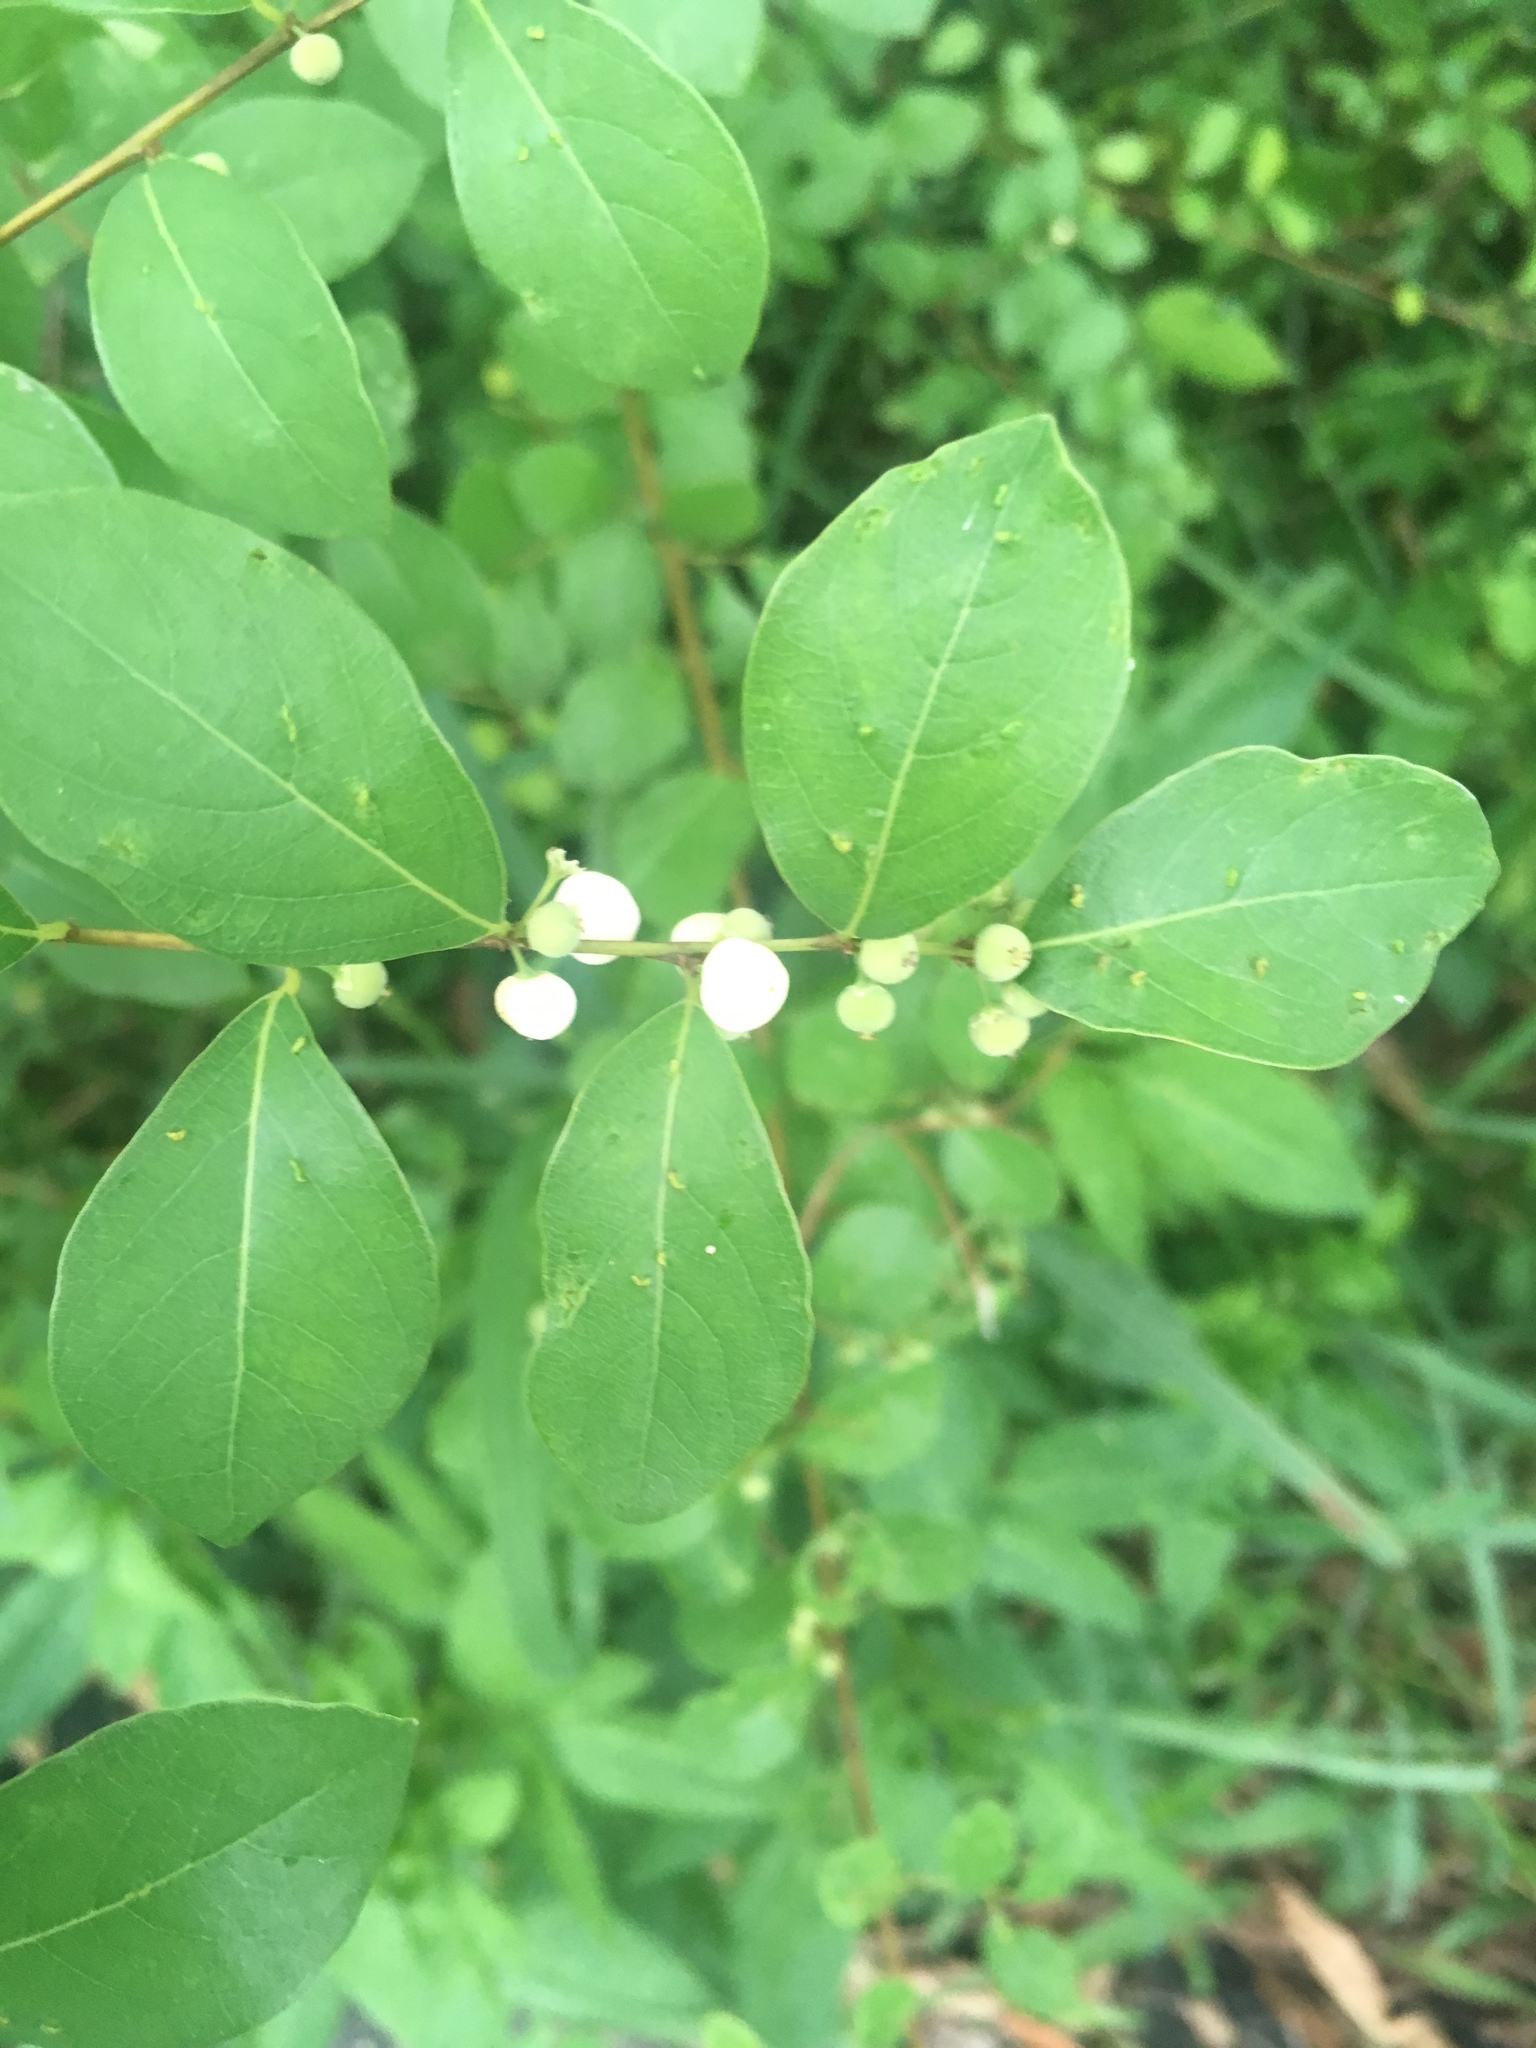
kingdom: Plantae
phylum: Tracheophyta
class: Magnoliopsida
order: Malpighiales
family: Phyllanthaceae
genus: Flueggea
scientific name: Flueggea virosa
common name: Common bushweed
